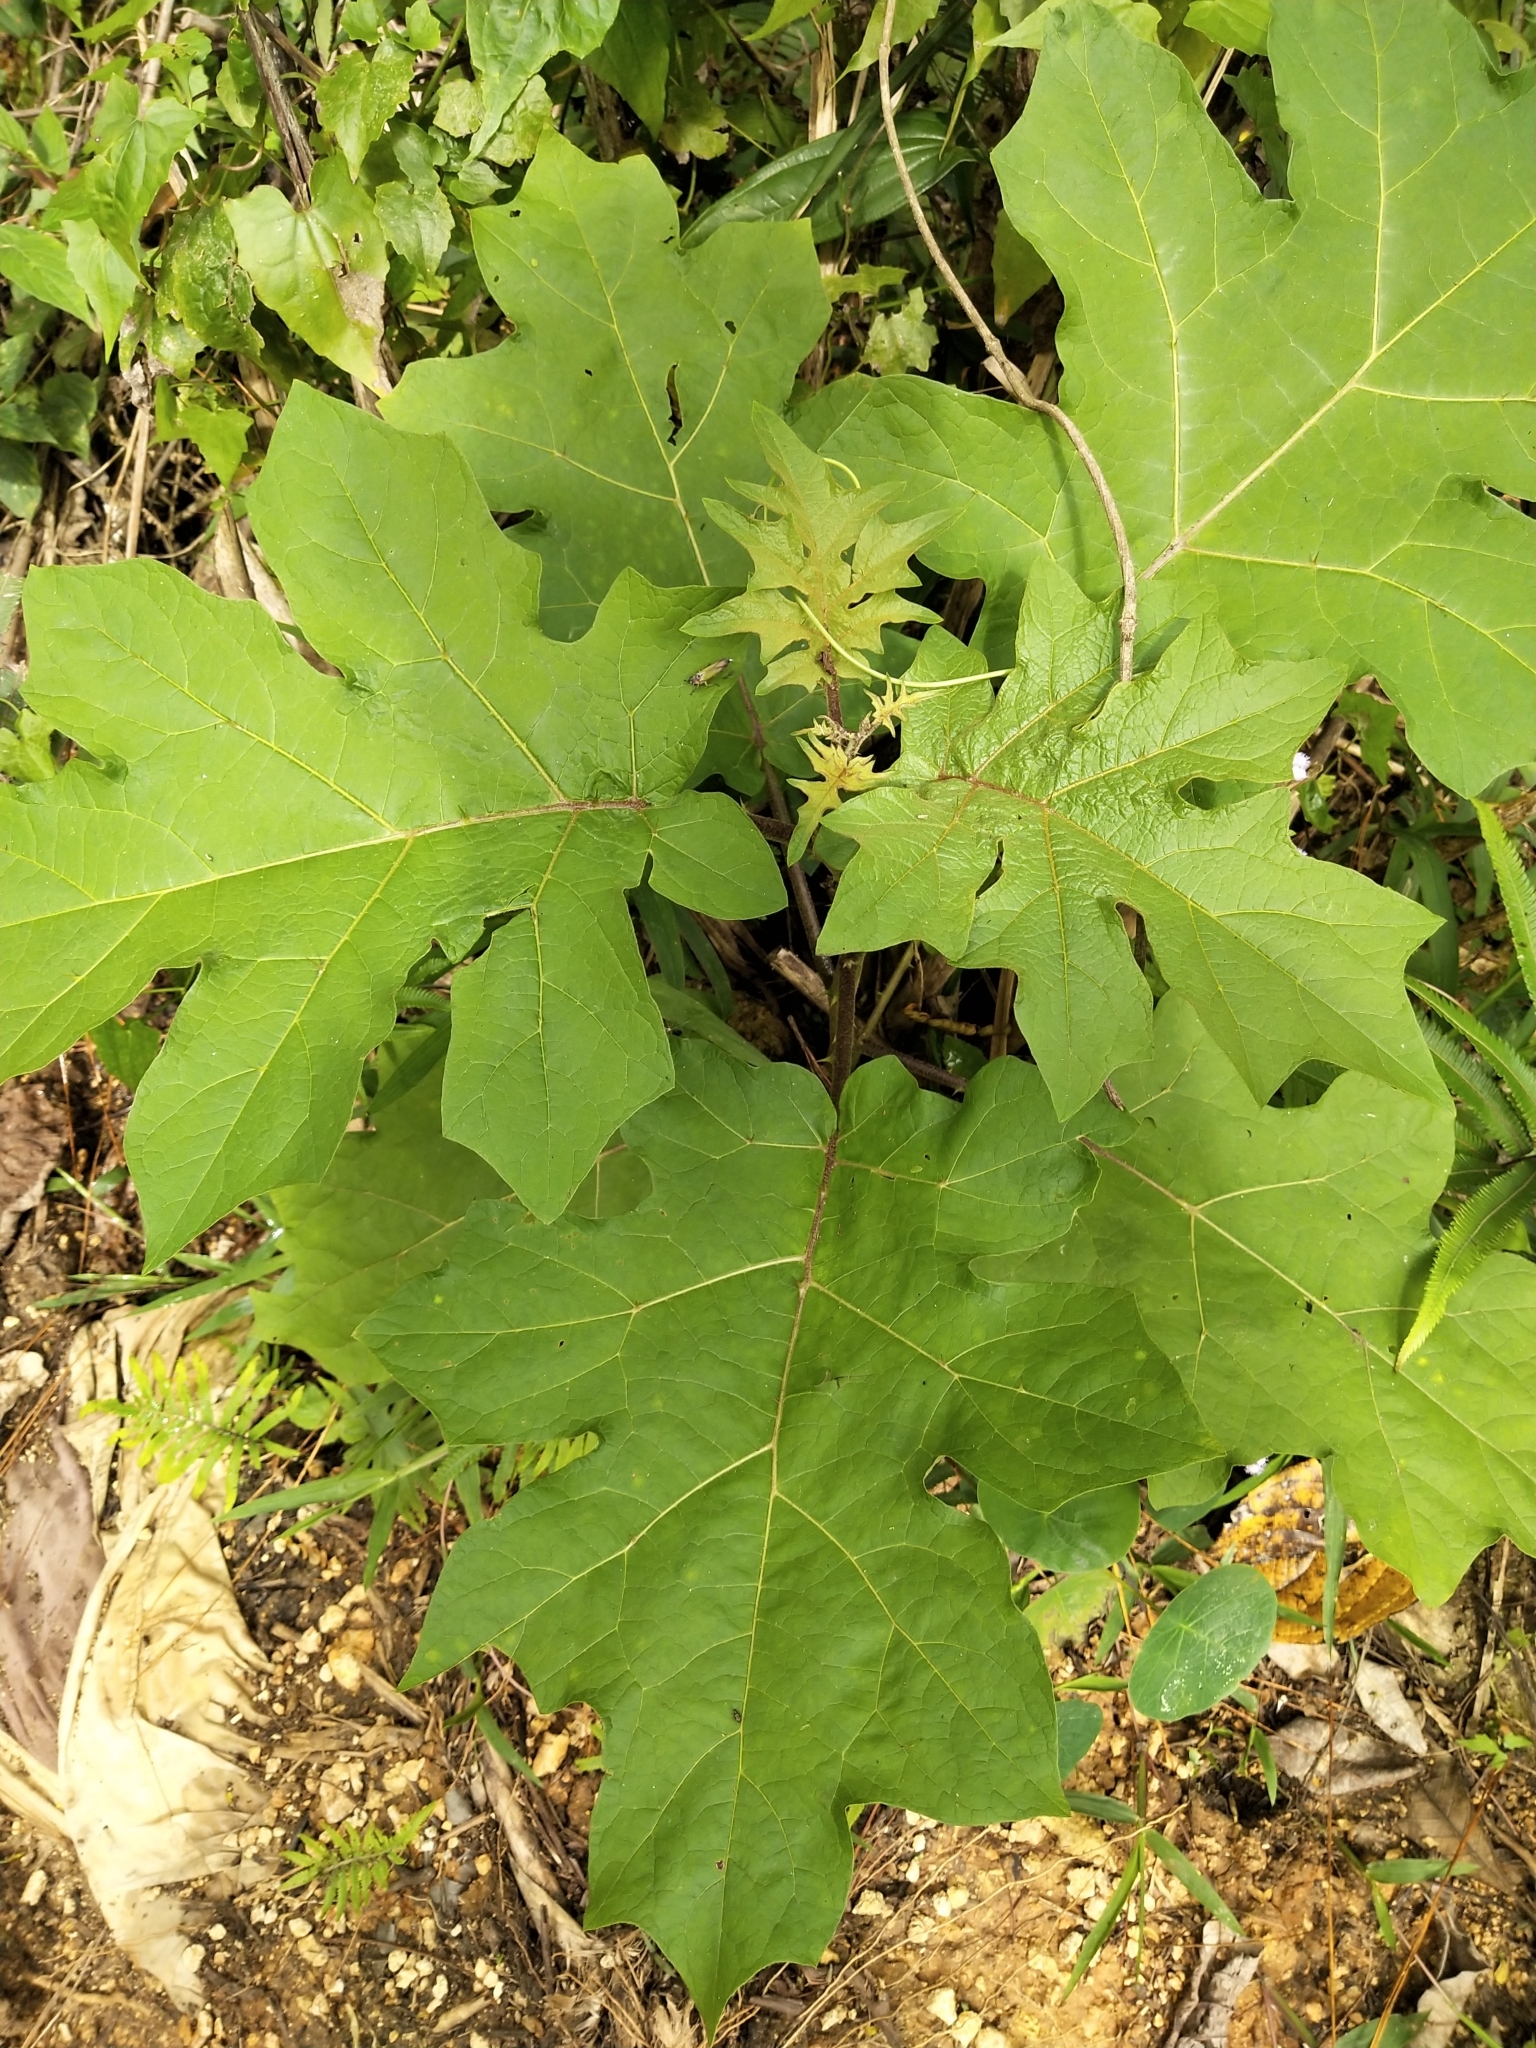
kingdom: Plantae
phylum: Tracheophyta
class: Magnoliopsida
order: Solanales
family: Solanaceae
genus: Solanum
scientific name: Solanum torvum
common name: Turkey berry
